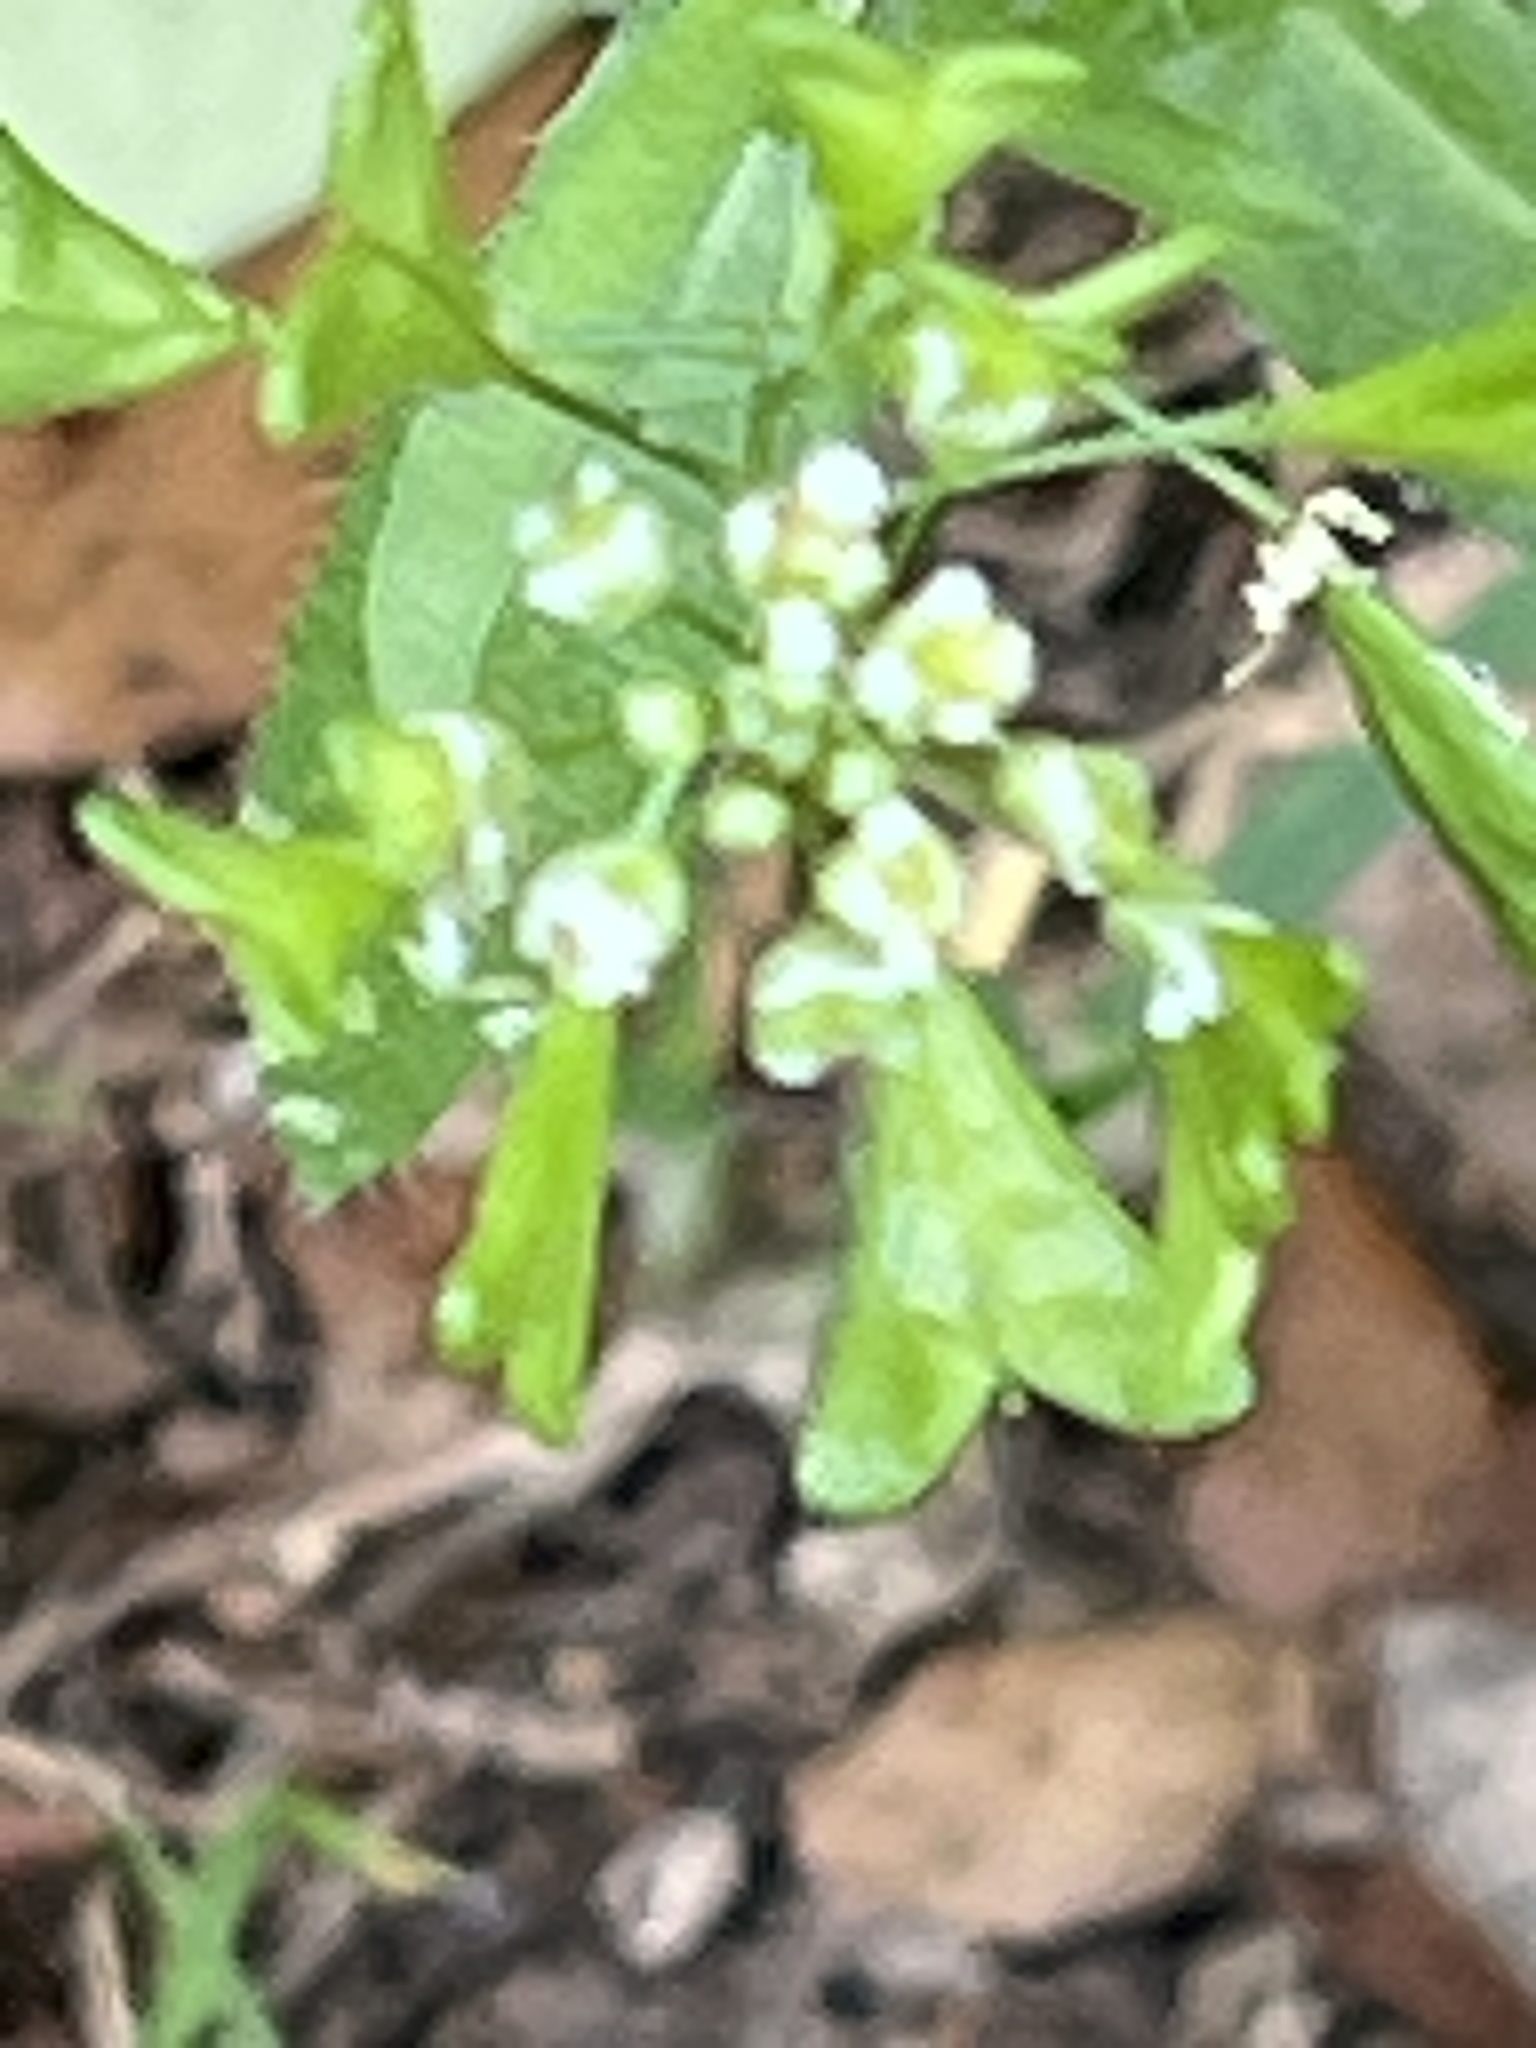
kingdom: Plantae
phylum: Tracheophyta
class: Magnoliopsida
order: Brassicales
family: Brassicaceae
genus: Capsella
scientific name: Capsella bursa-pastoris
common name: Shepherd's purse
